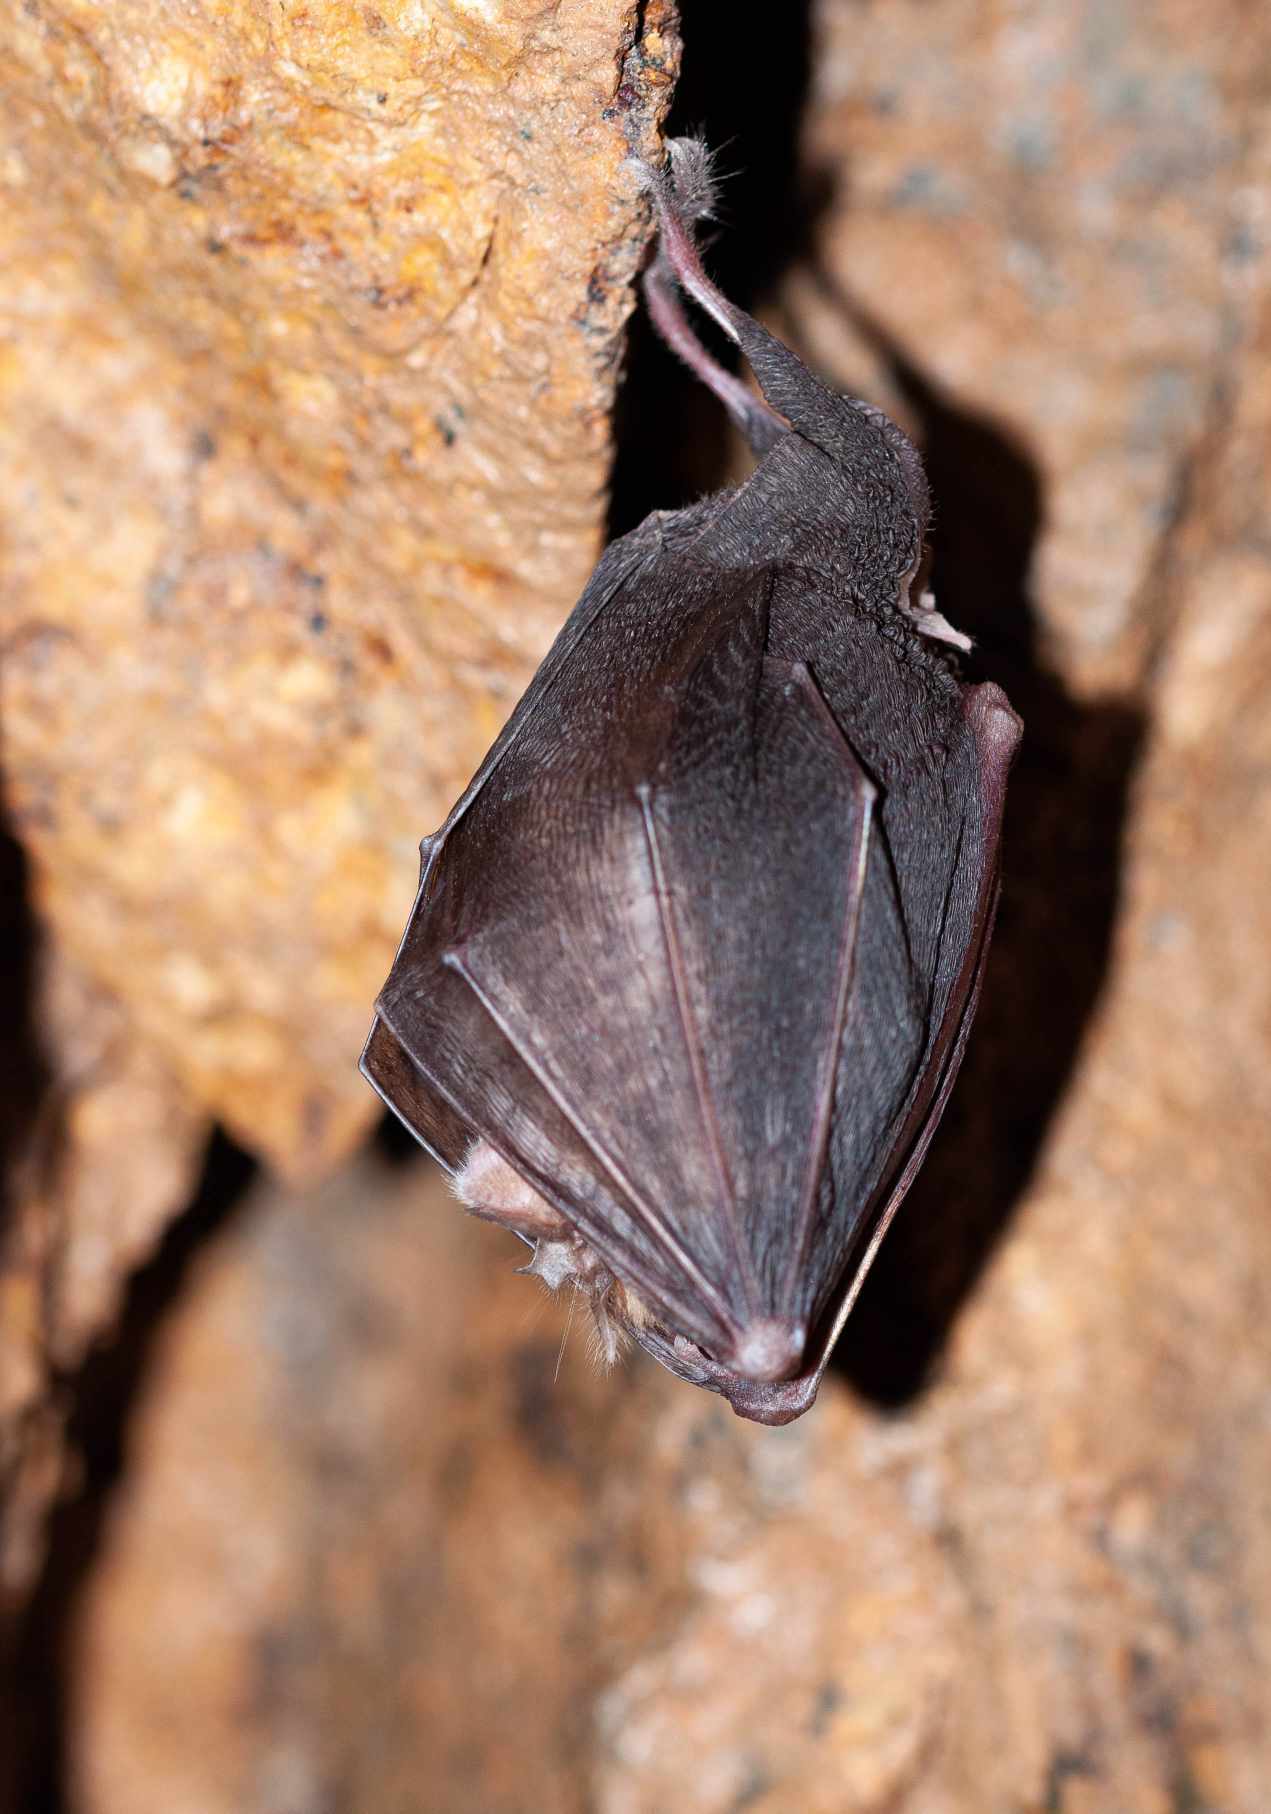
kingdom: Animalia
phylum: Chordata
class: Mammalia
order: Chiroptera
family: Rhinolophidae
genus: Rhinolophus
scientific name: Rhinolophus ferrumequinum
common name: Greater horseshoe bat
